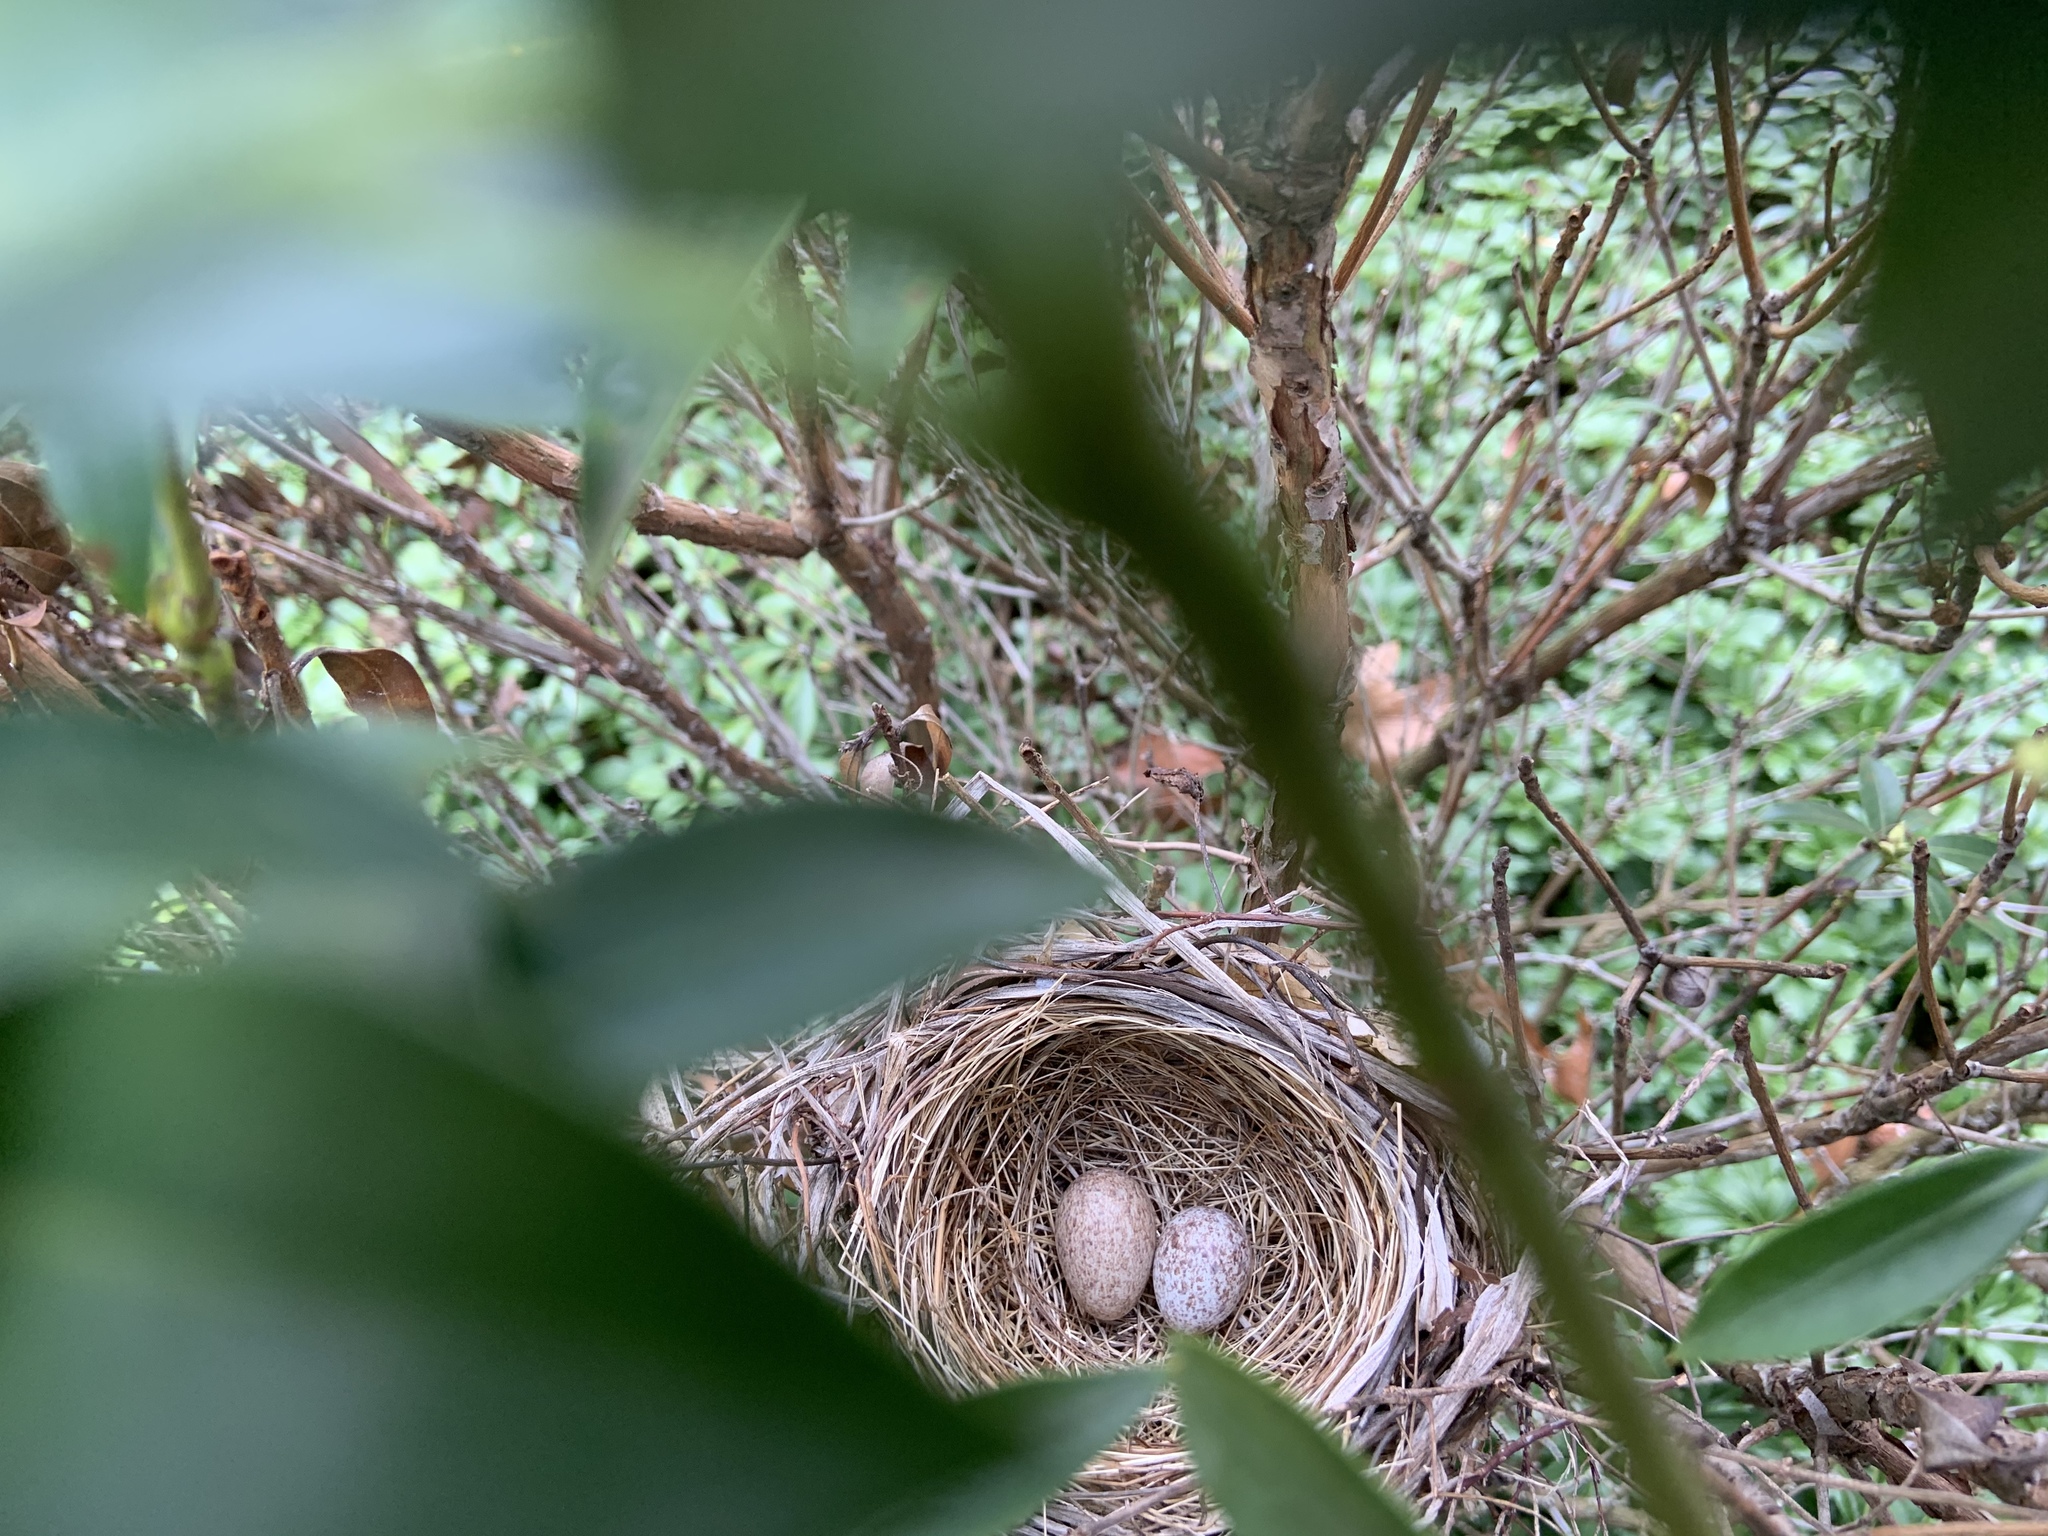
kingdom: Animalia
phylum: Chordata
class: Aves
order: Passeriformes
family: Cardinalidae
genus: Cardinalis
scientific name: Cardinalis cardinalis
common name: Northern cardinal
